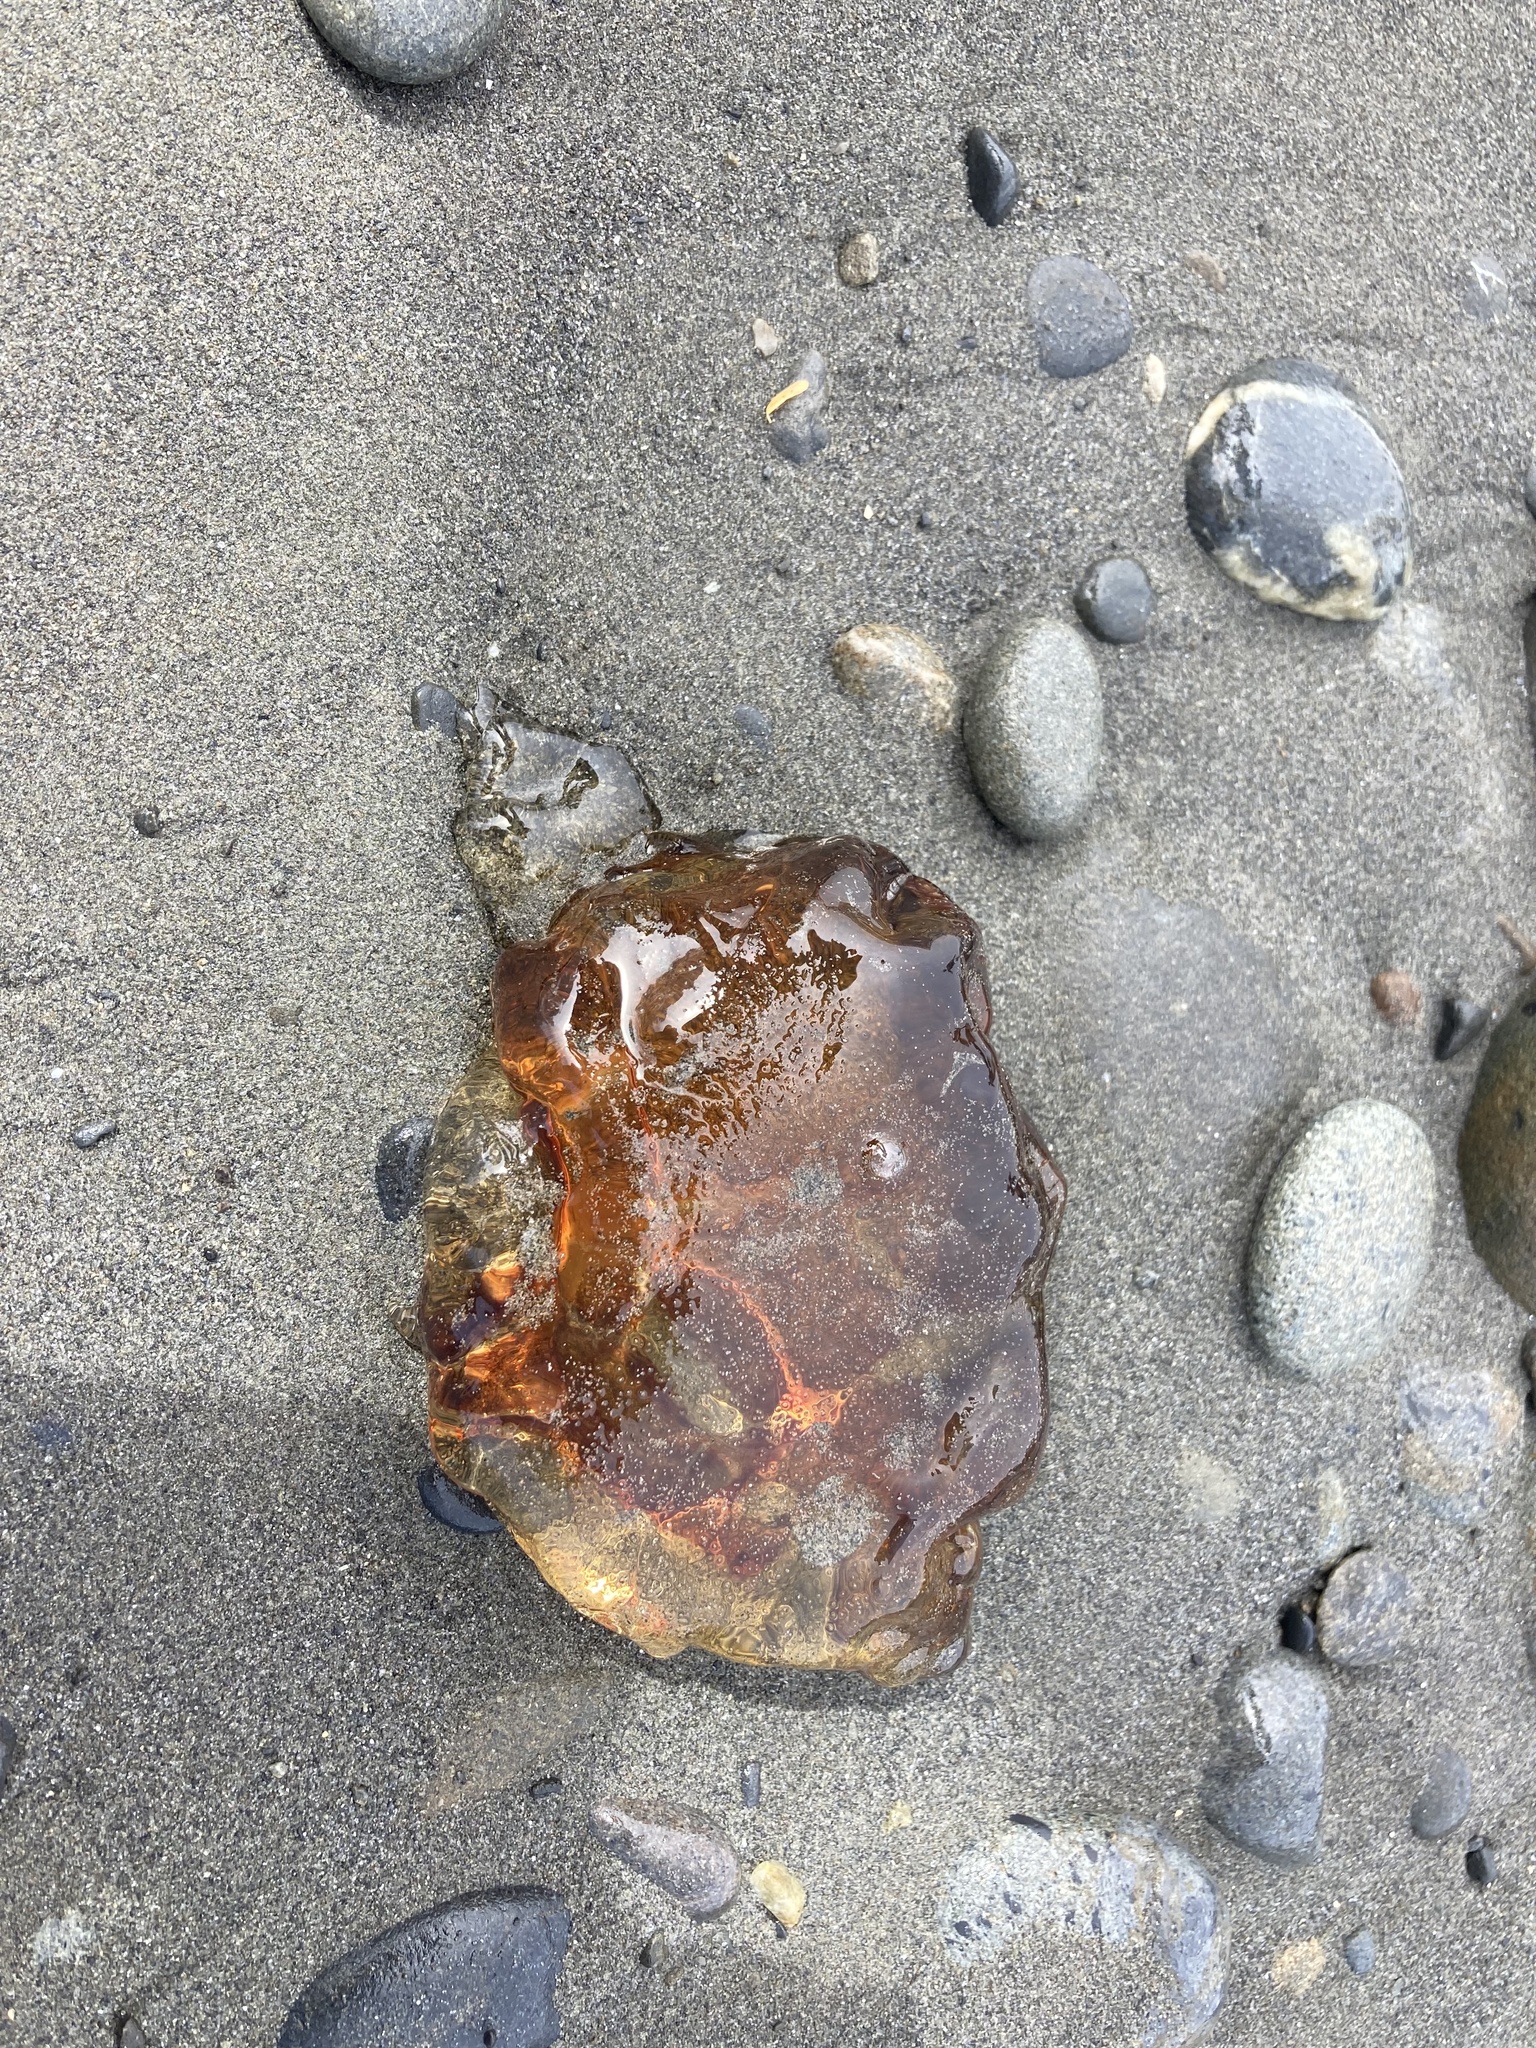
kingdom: Animalia
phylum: Cnidaria
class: Scyphozoa
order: Semaeostomeae
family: Cyaneidae
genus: Cyanea
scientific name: Cyanea ferruginea
